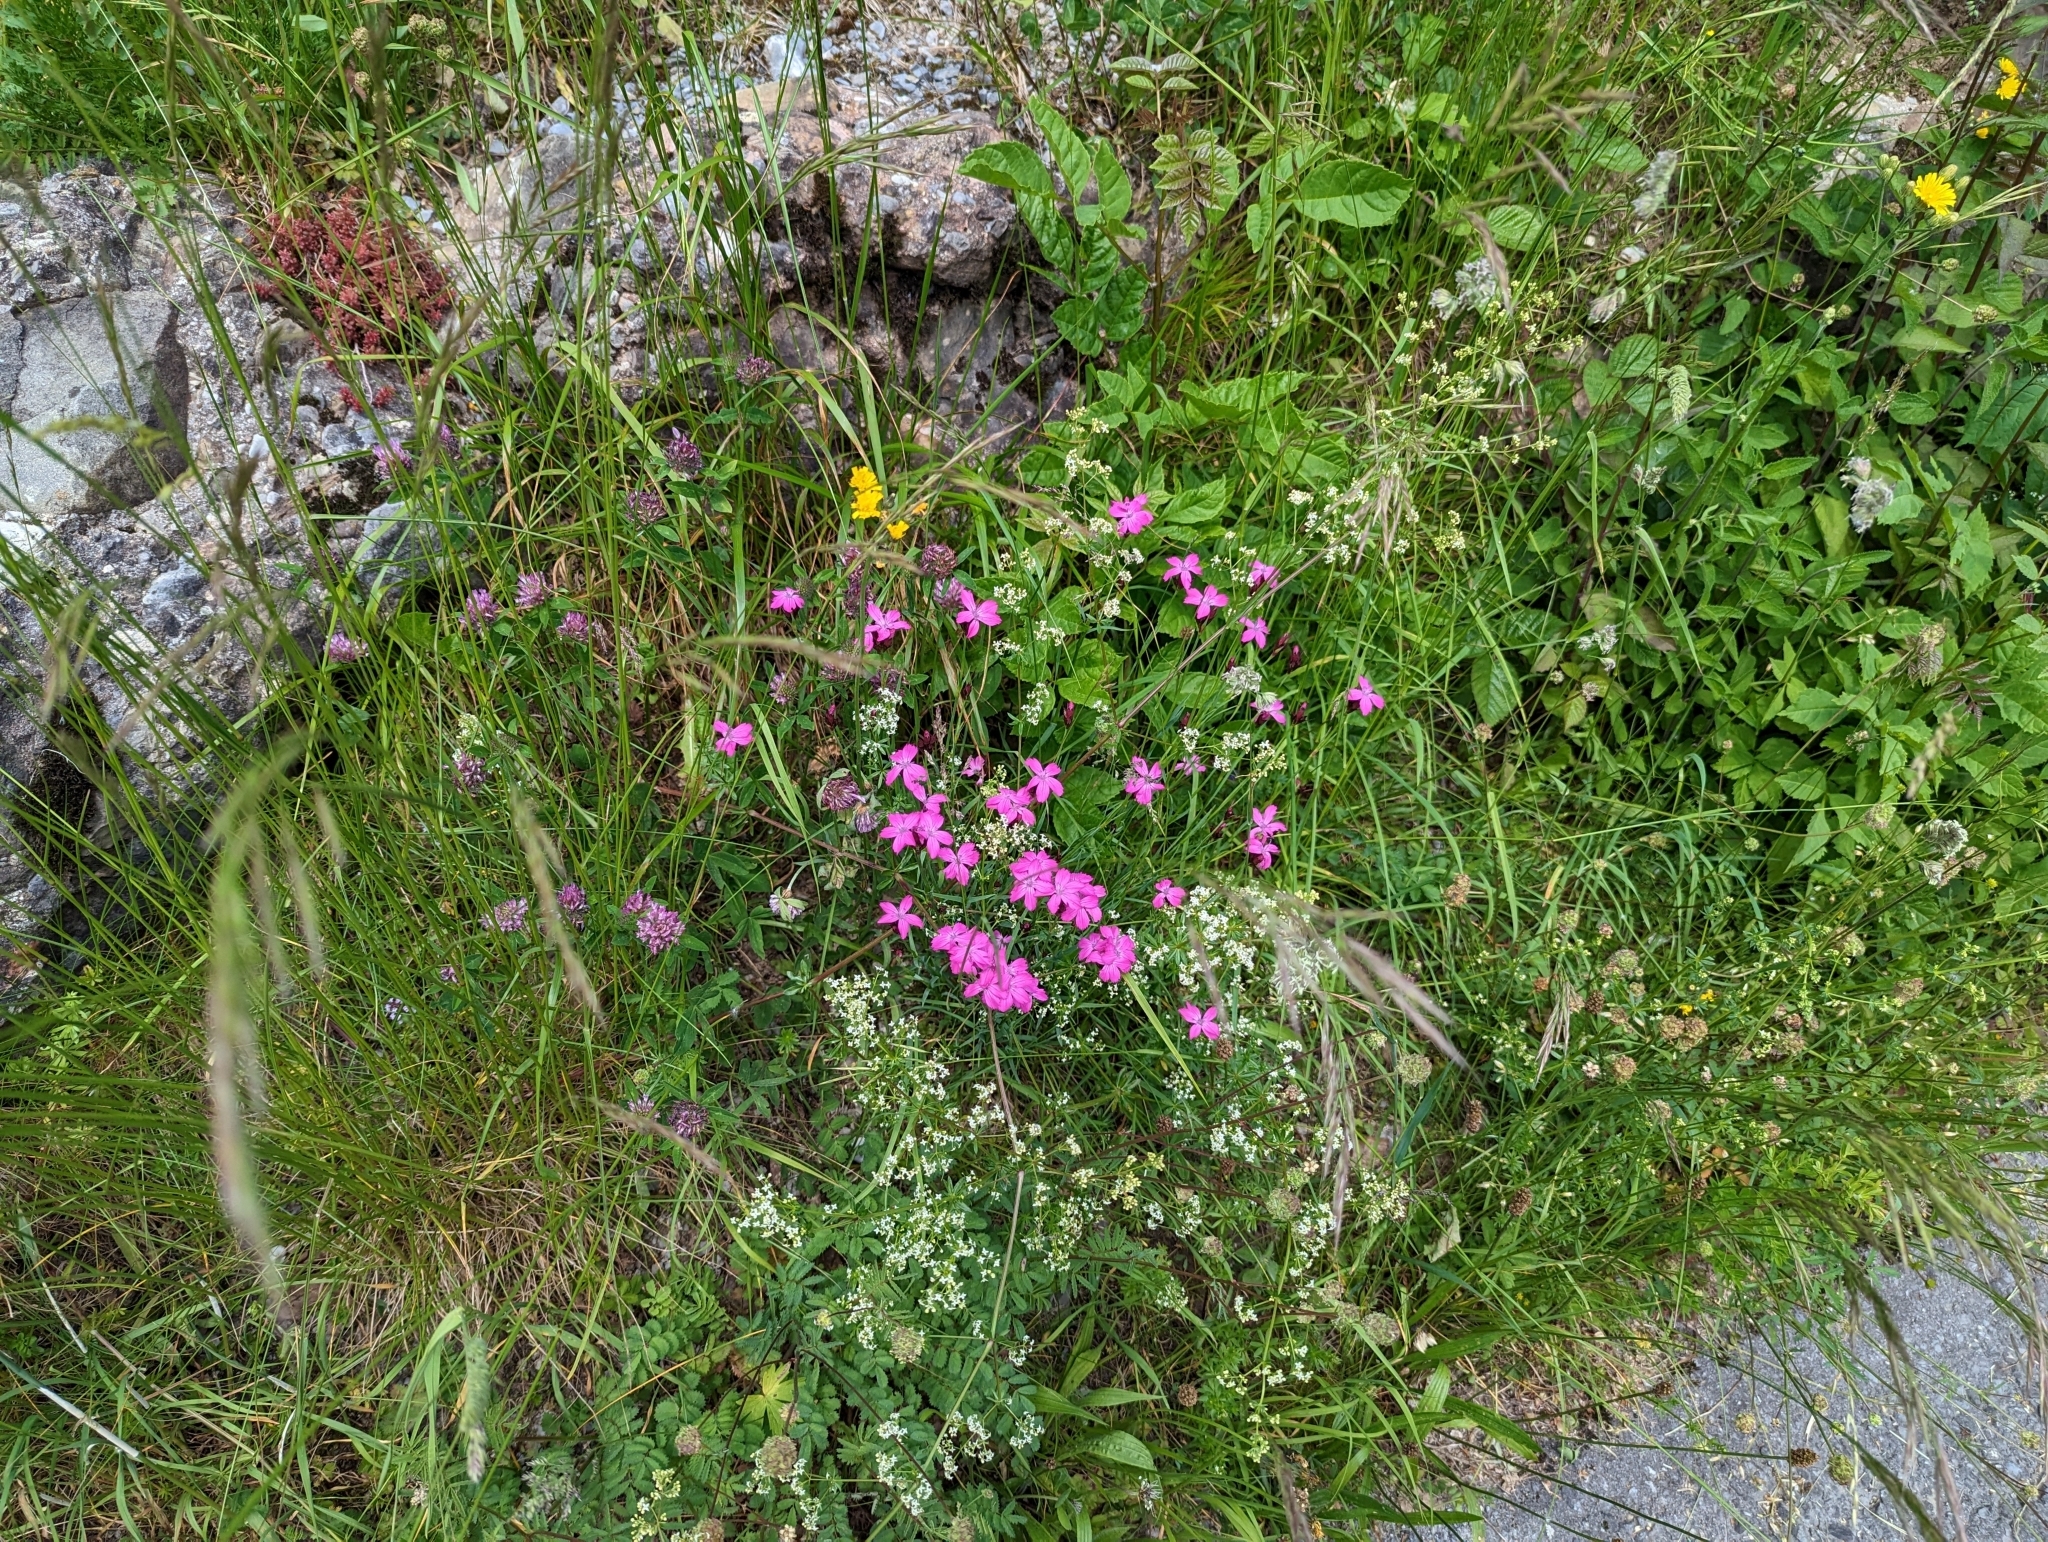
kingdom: Plantae
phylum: Tracheophyta
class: Magnoliopsida
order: Caryophyllales
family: Caryophyllaceae
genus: Dianthus
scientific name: Dianthus carthusianorum
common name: Carthusian pink
